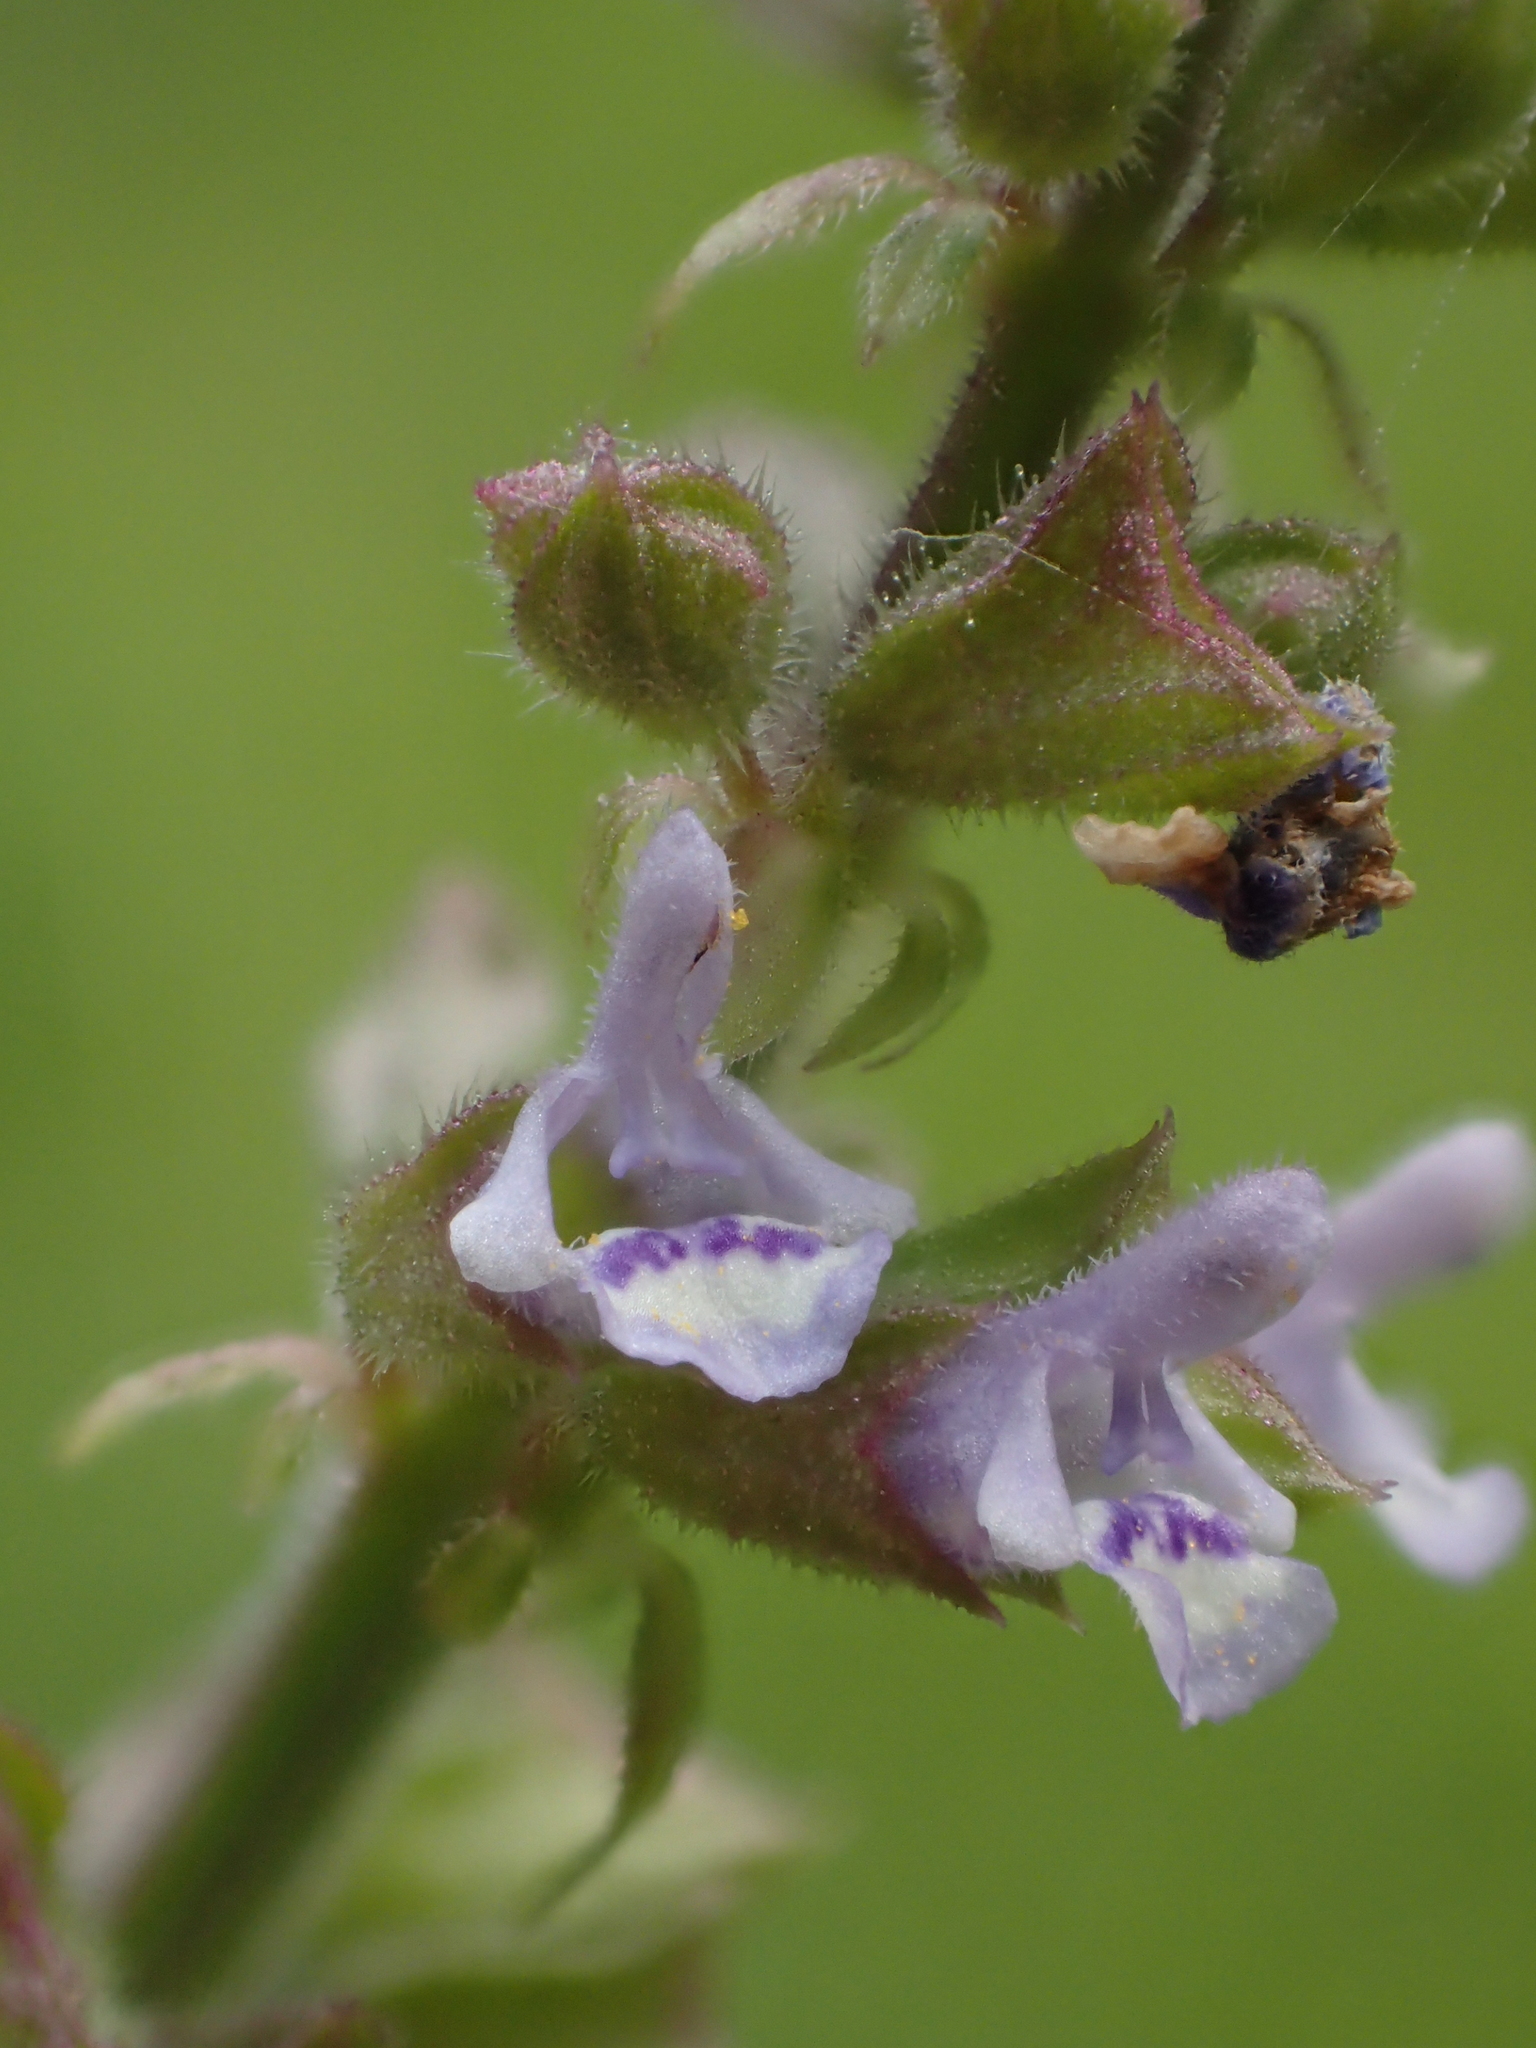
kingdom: Plantae
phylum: Tracheophyta
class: Magnoliopsida
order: Lamiales
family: Lamiaceae
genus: Salvia
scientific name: Salvia plebeia
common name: Australian sage
